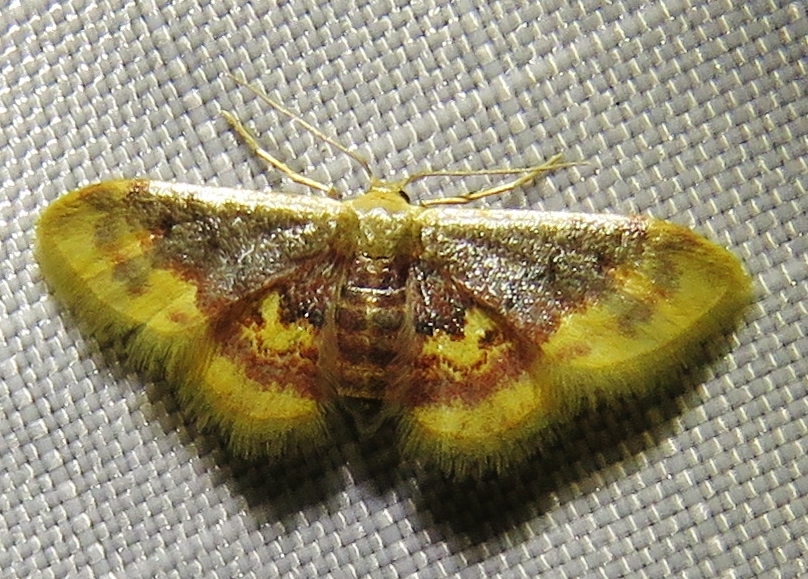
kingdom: Animalia
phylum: Arthropoda
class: Insecta
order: Lepidoptera
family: Geometridae
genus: Idaea
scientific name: Idaea scintillularia
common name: Diminutive wave
